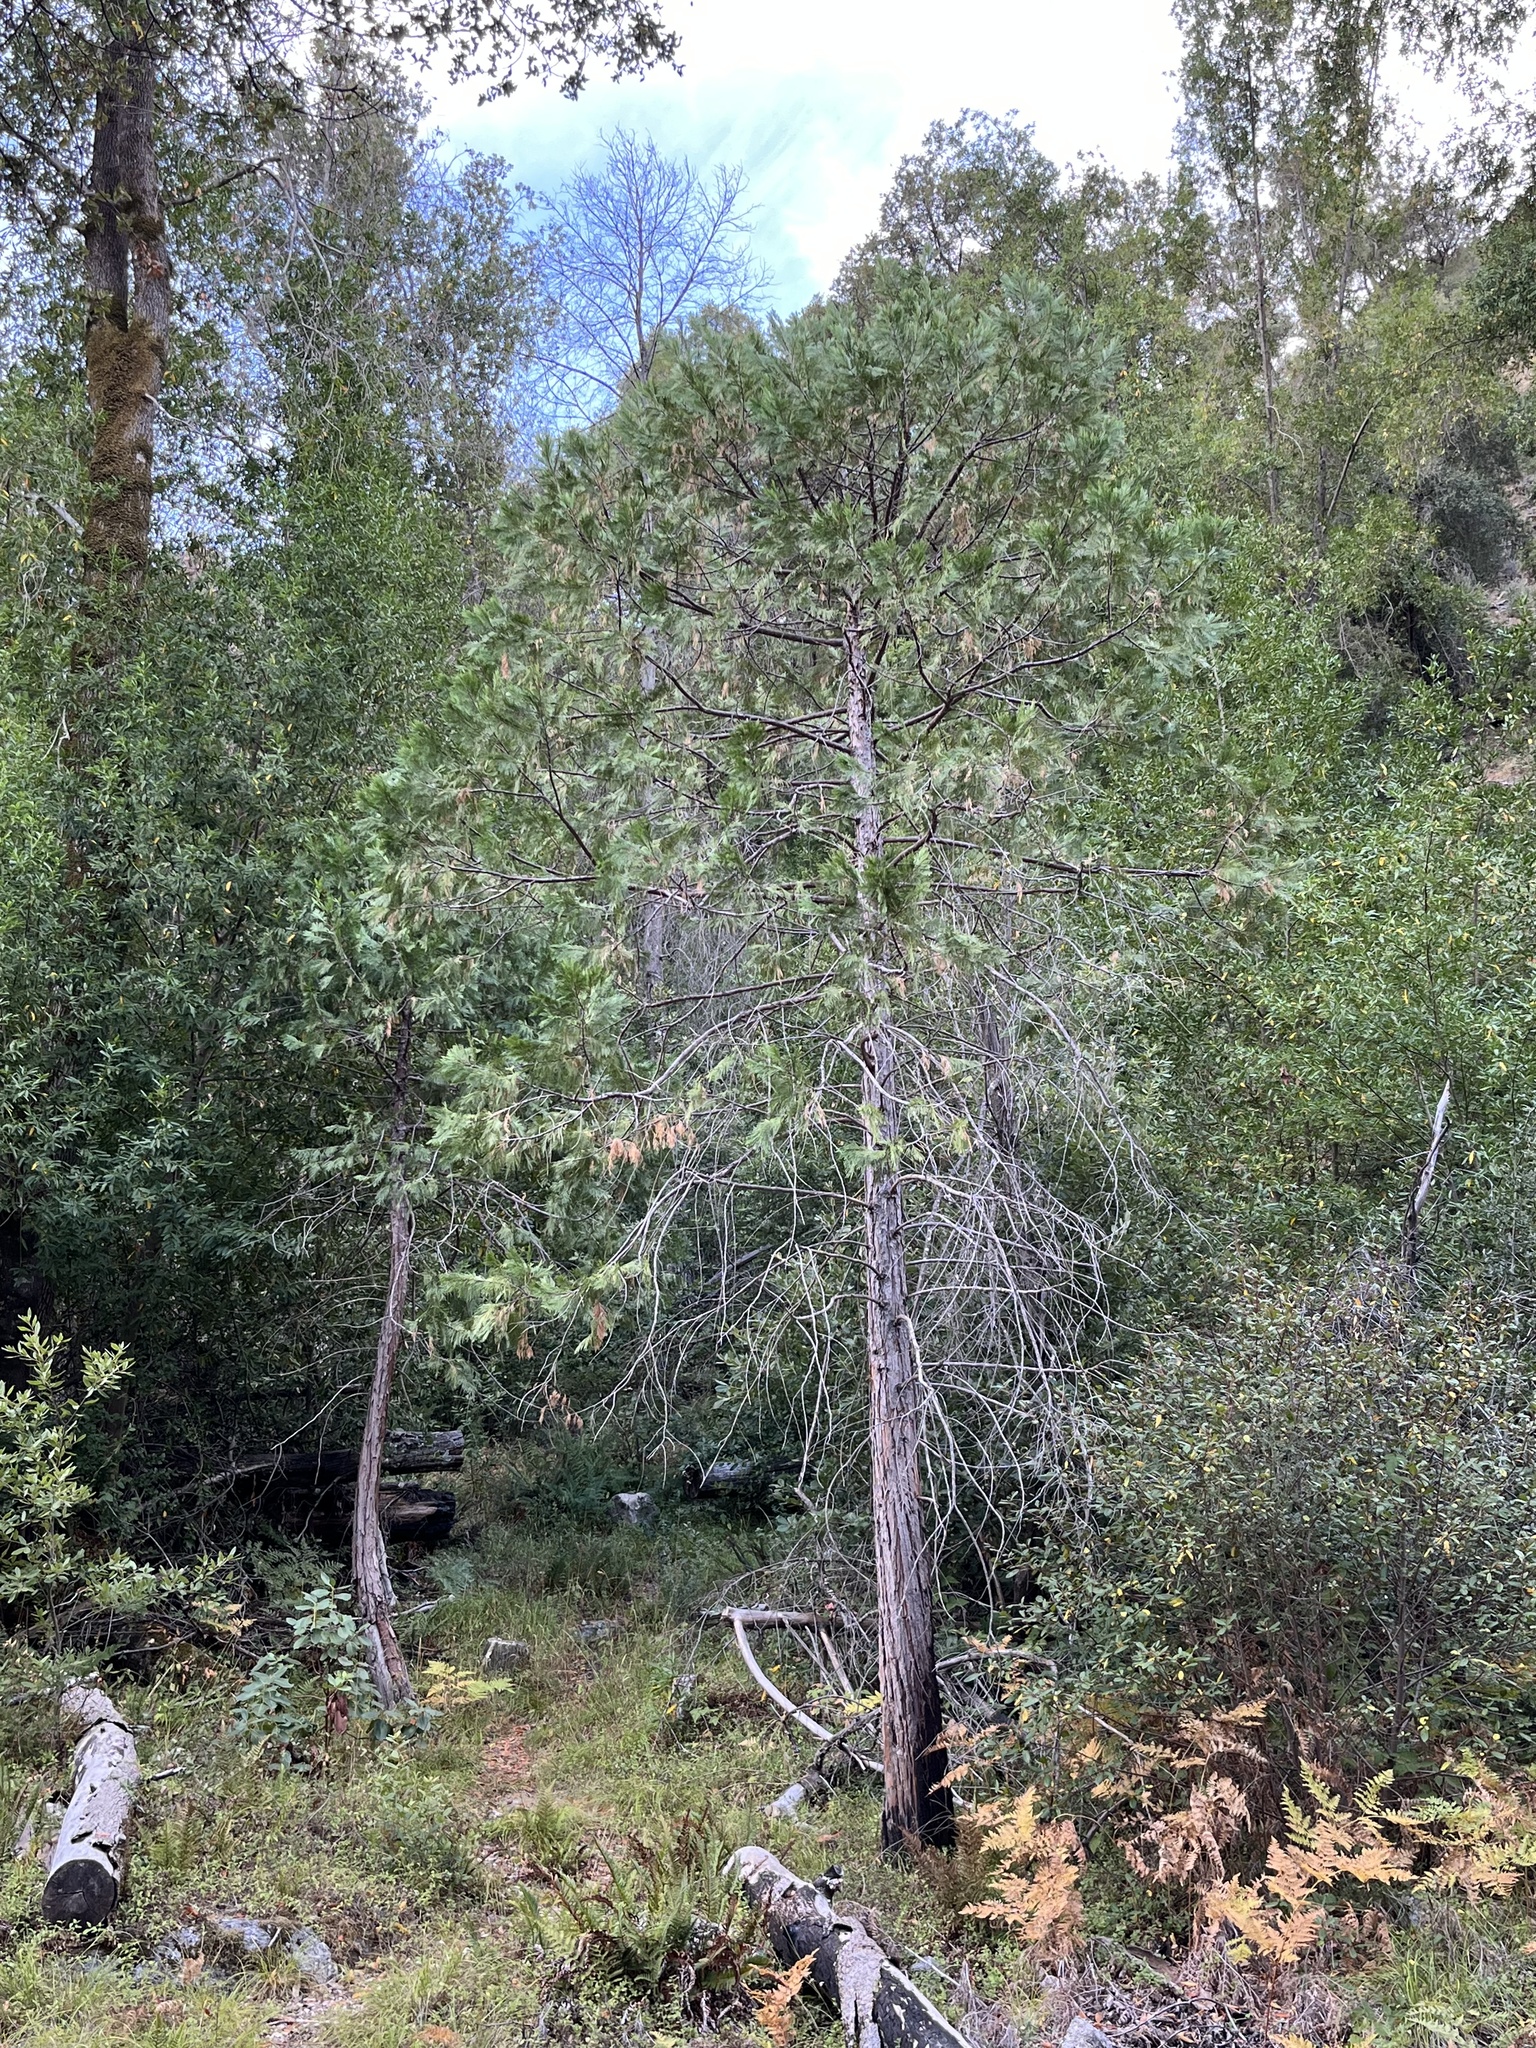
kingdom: Plantae
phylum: Tracheophyta
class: Pinopsida
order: Pinales
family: Cupressaceae
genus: Calocedrus
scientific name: Calocedrus decurrens
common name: Californian incense-cedar
